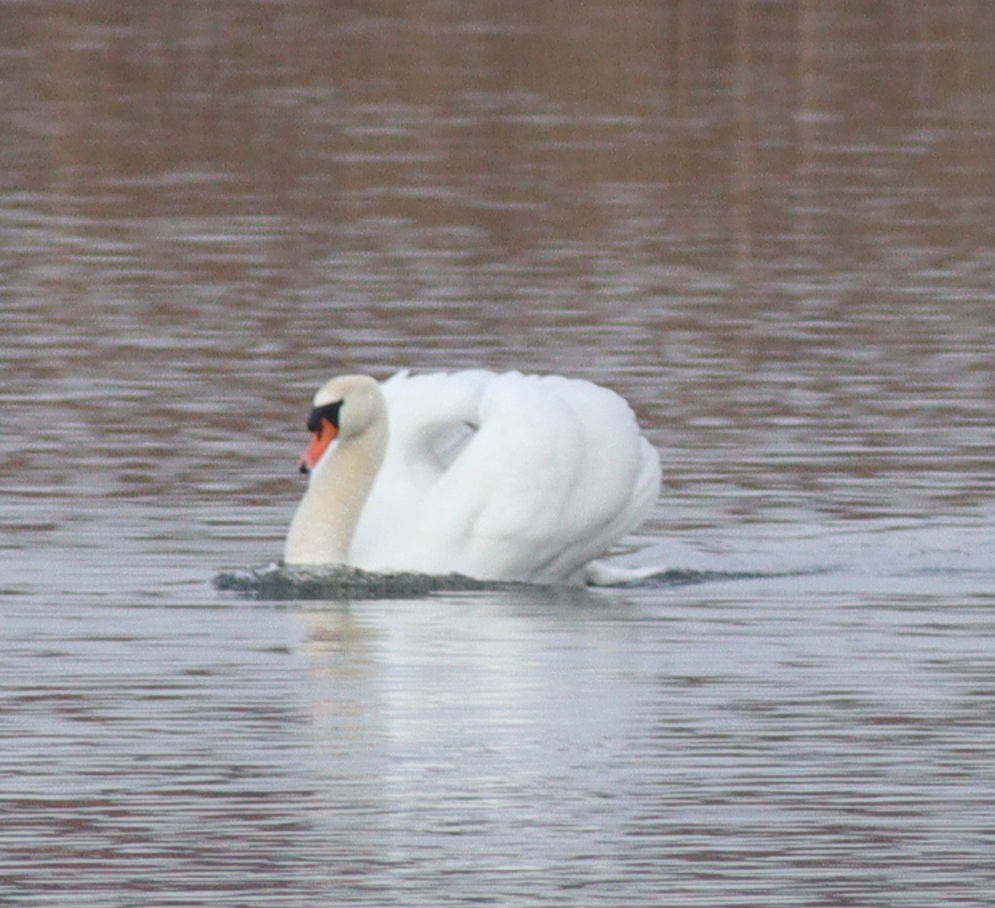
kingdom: Animalia
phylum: Chordata
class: Aves
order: Anseriformes
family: Anatidae
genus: Cygnus
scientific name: Cygnus olor
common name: Mute swan
